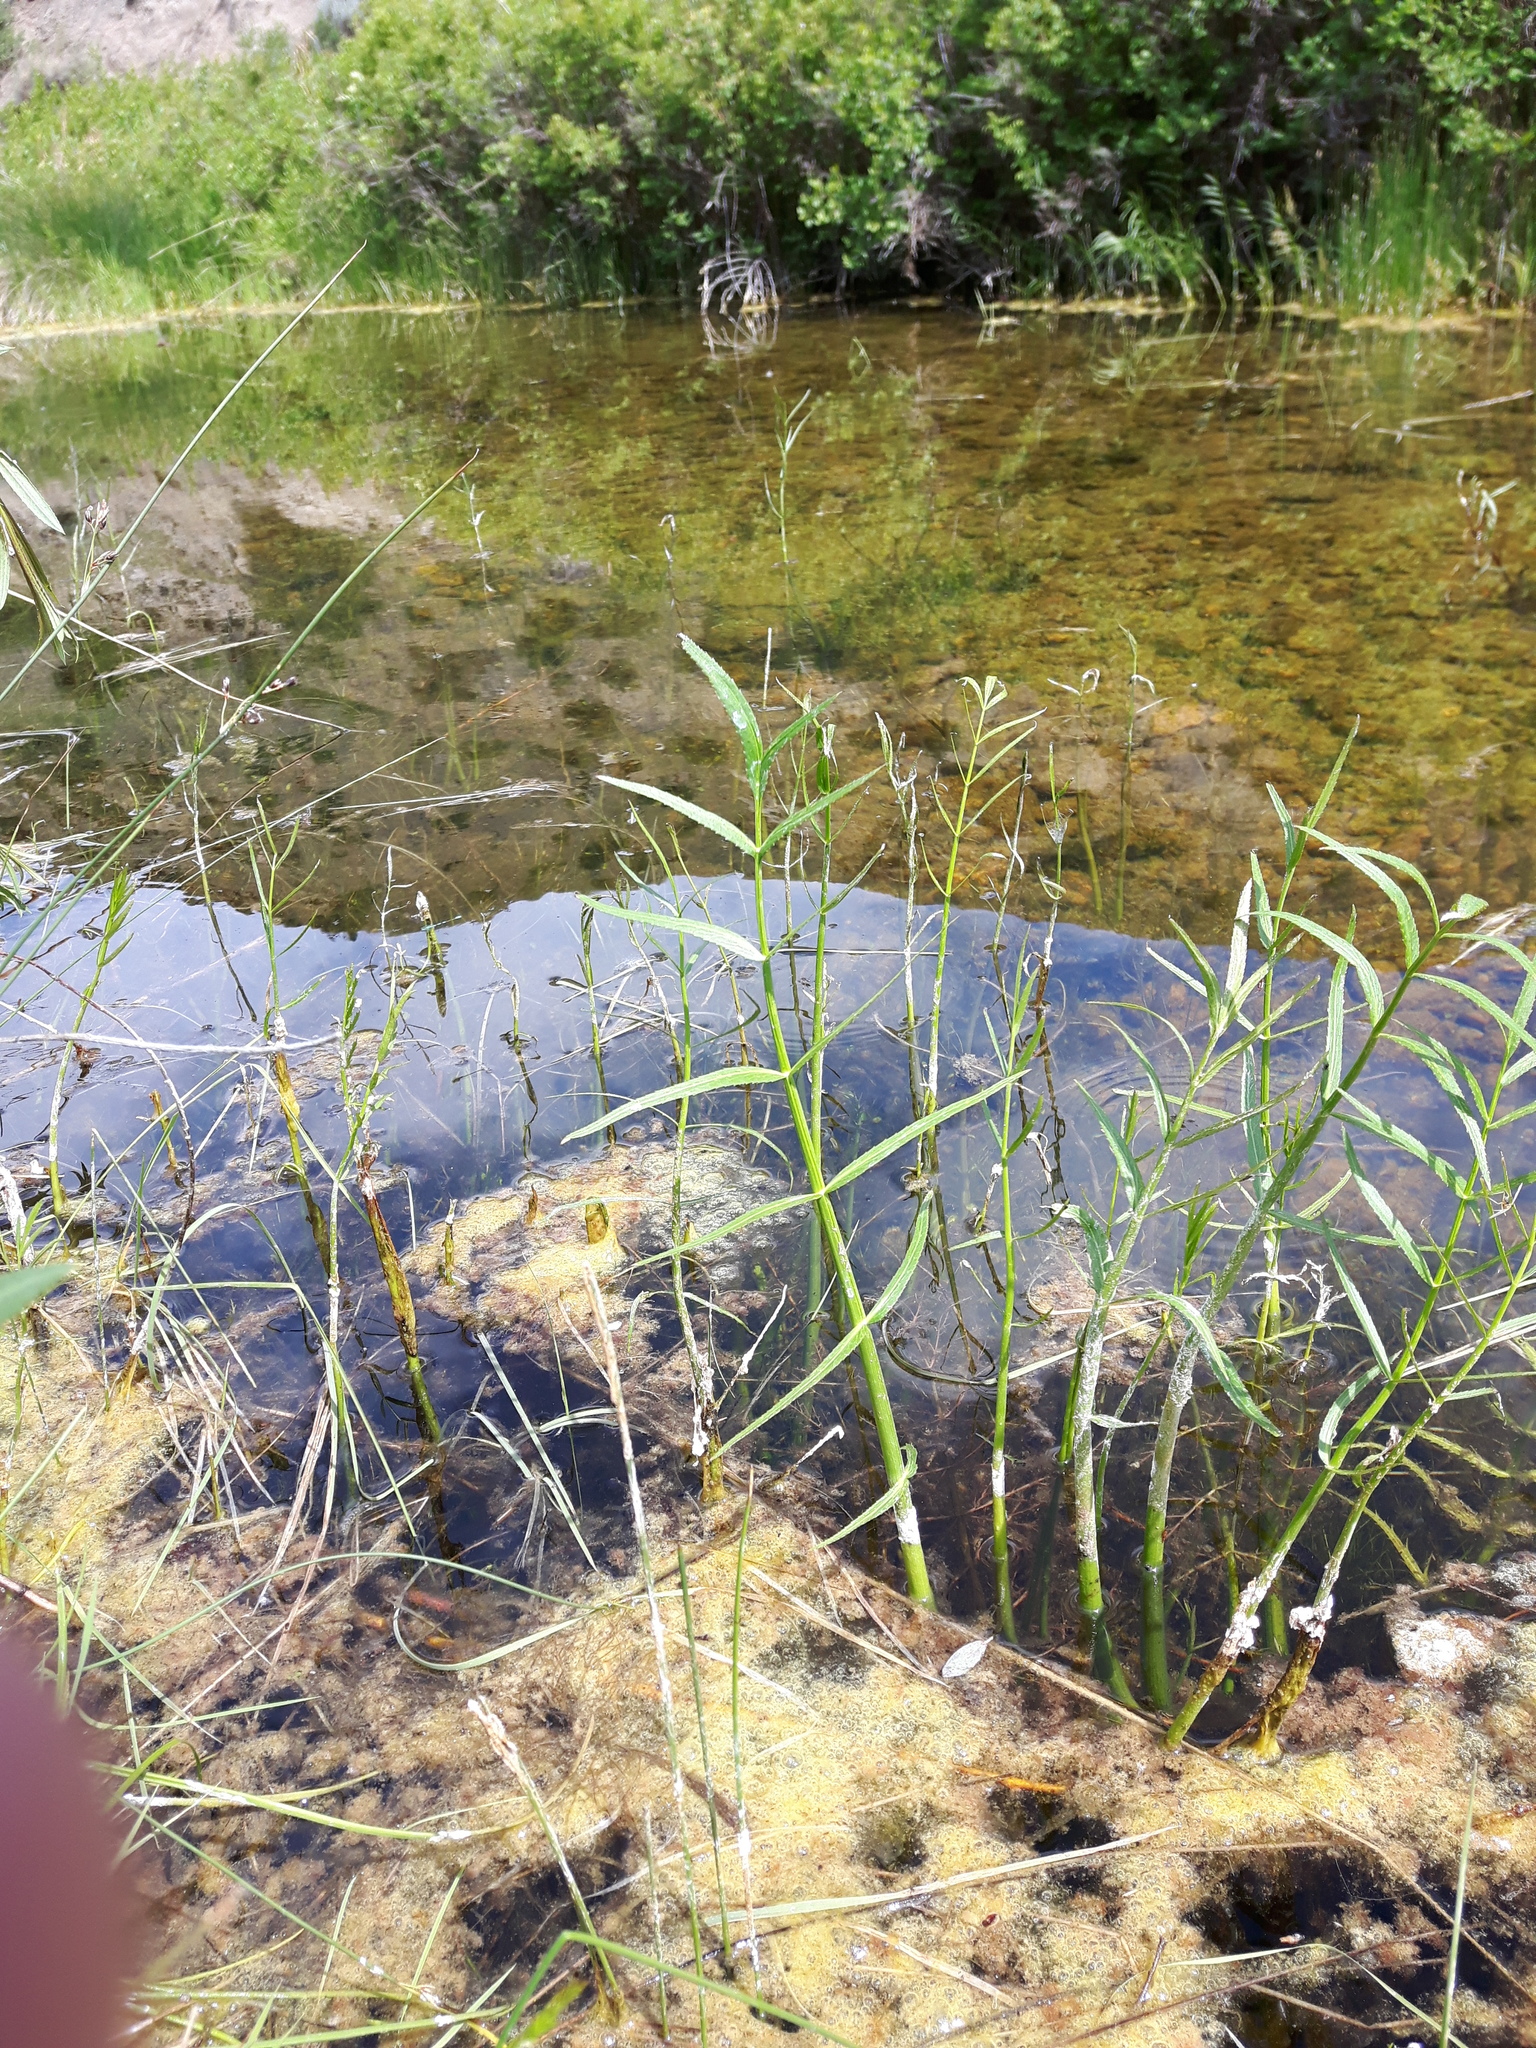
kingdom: Plantae
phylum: Tracheophyta
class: Magnoliopsida
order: Apiales
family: Apiaceae
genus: Sium
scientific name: Sium suave
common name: Hemlock water-parsnip
